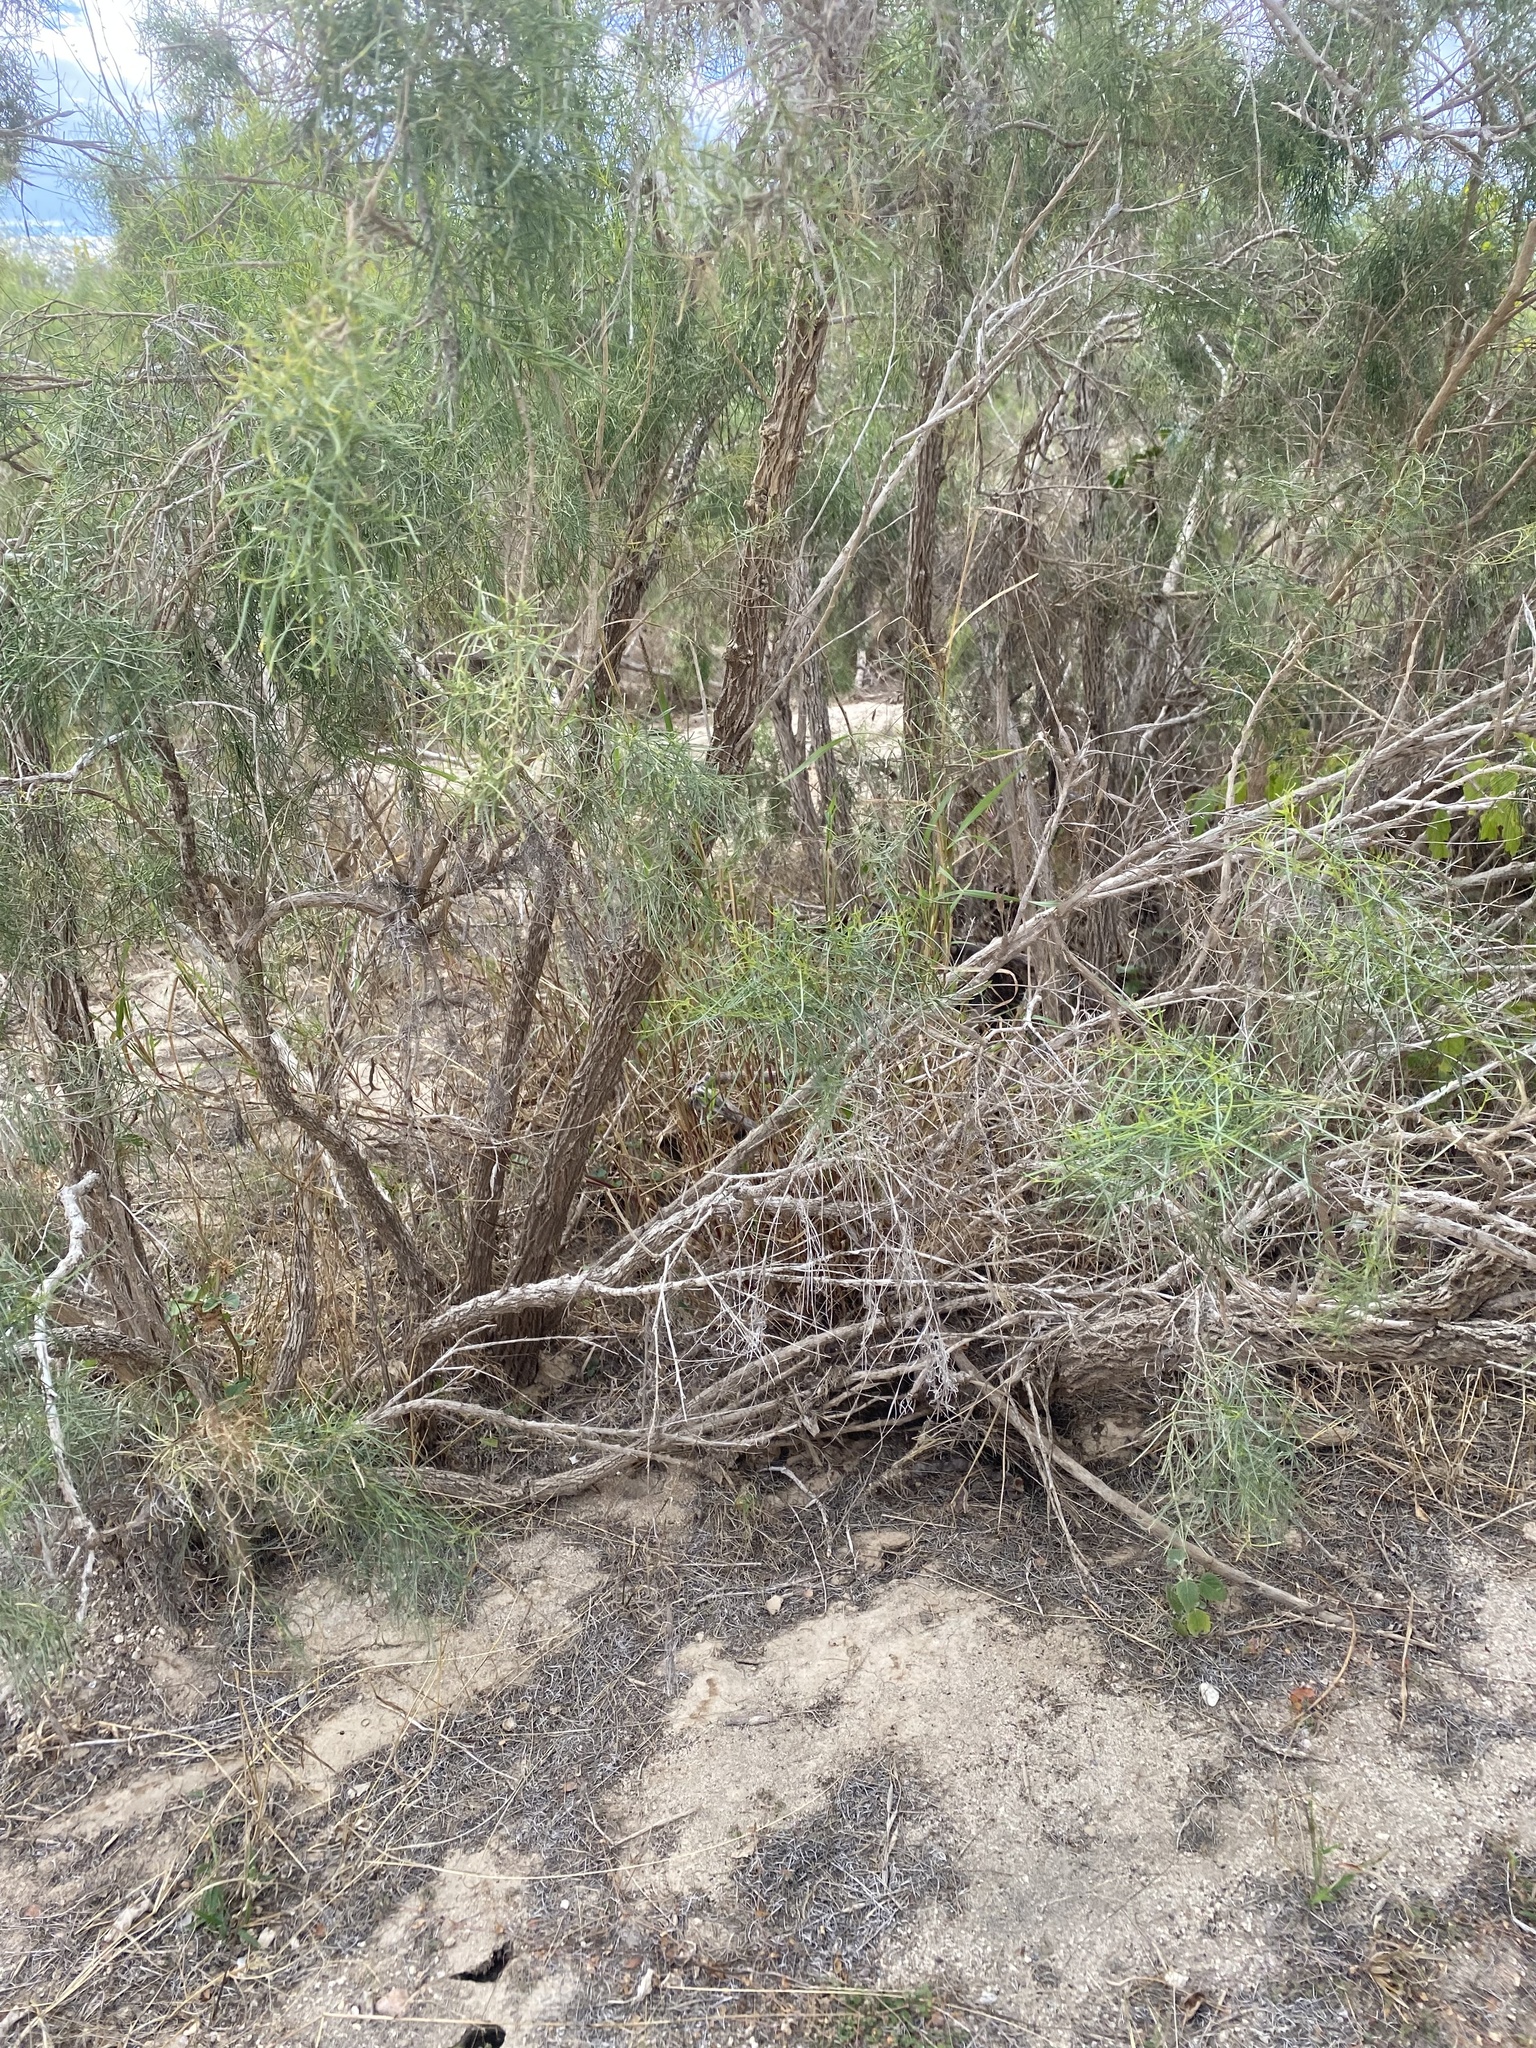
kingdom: Plantae
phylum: Tracheophyta
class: Magnoliopsida
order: Asterales
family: Asteraceae
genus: Ambrosia
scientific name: Ambrosia monogyra
